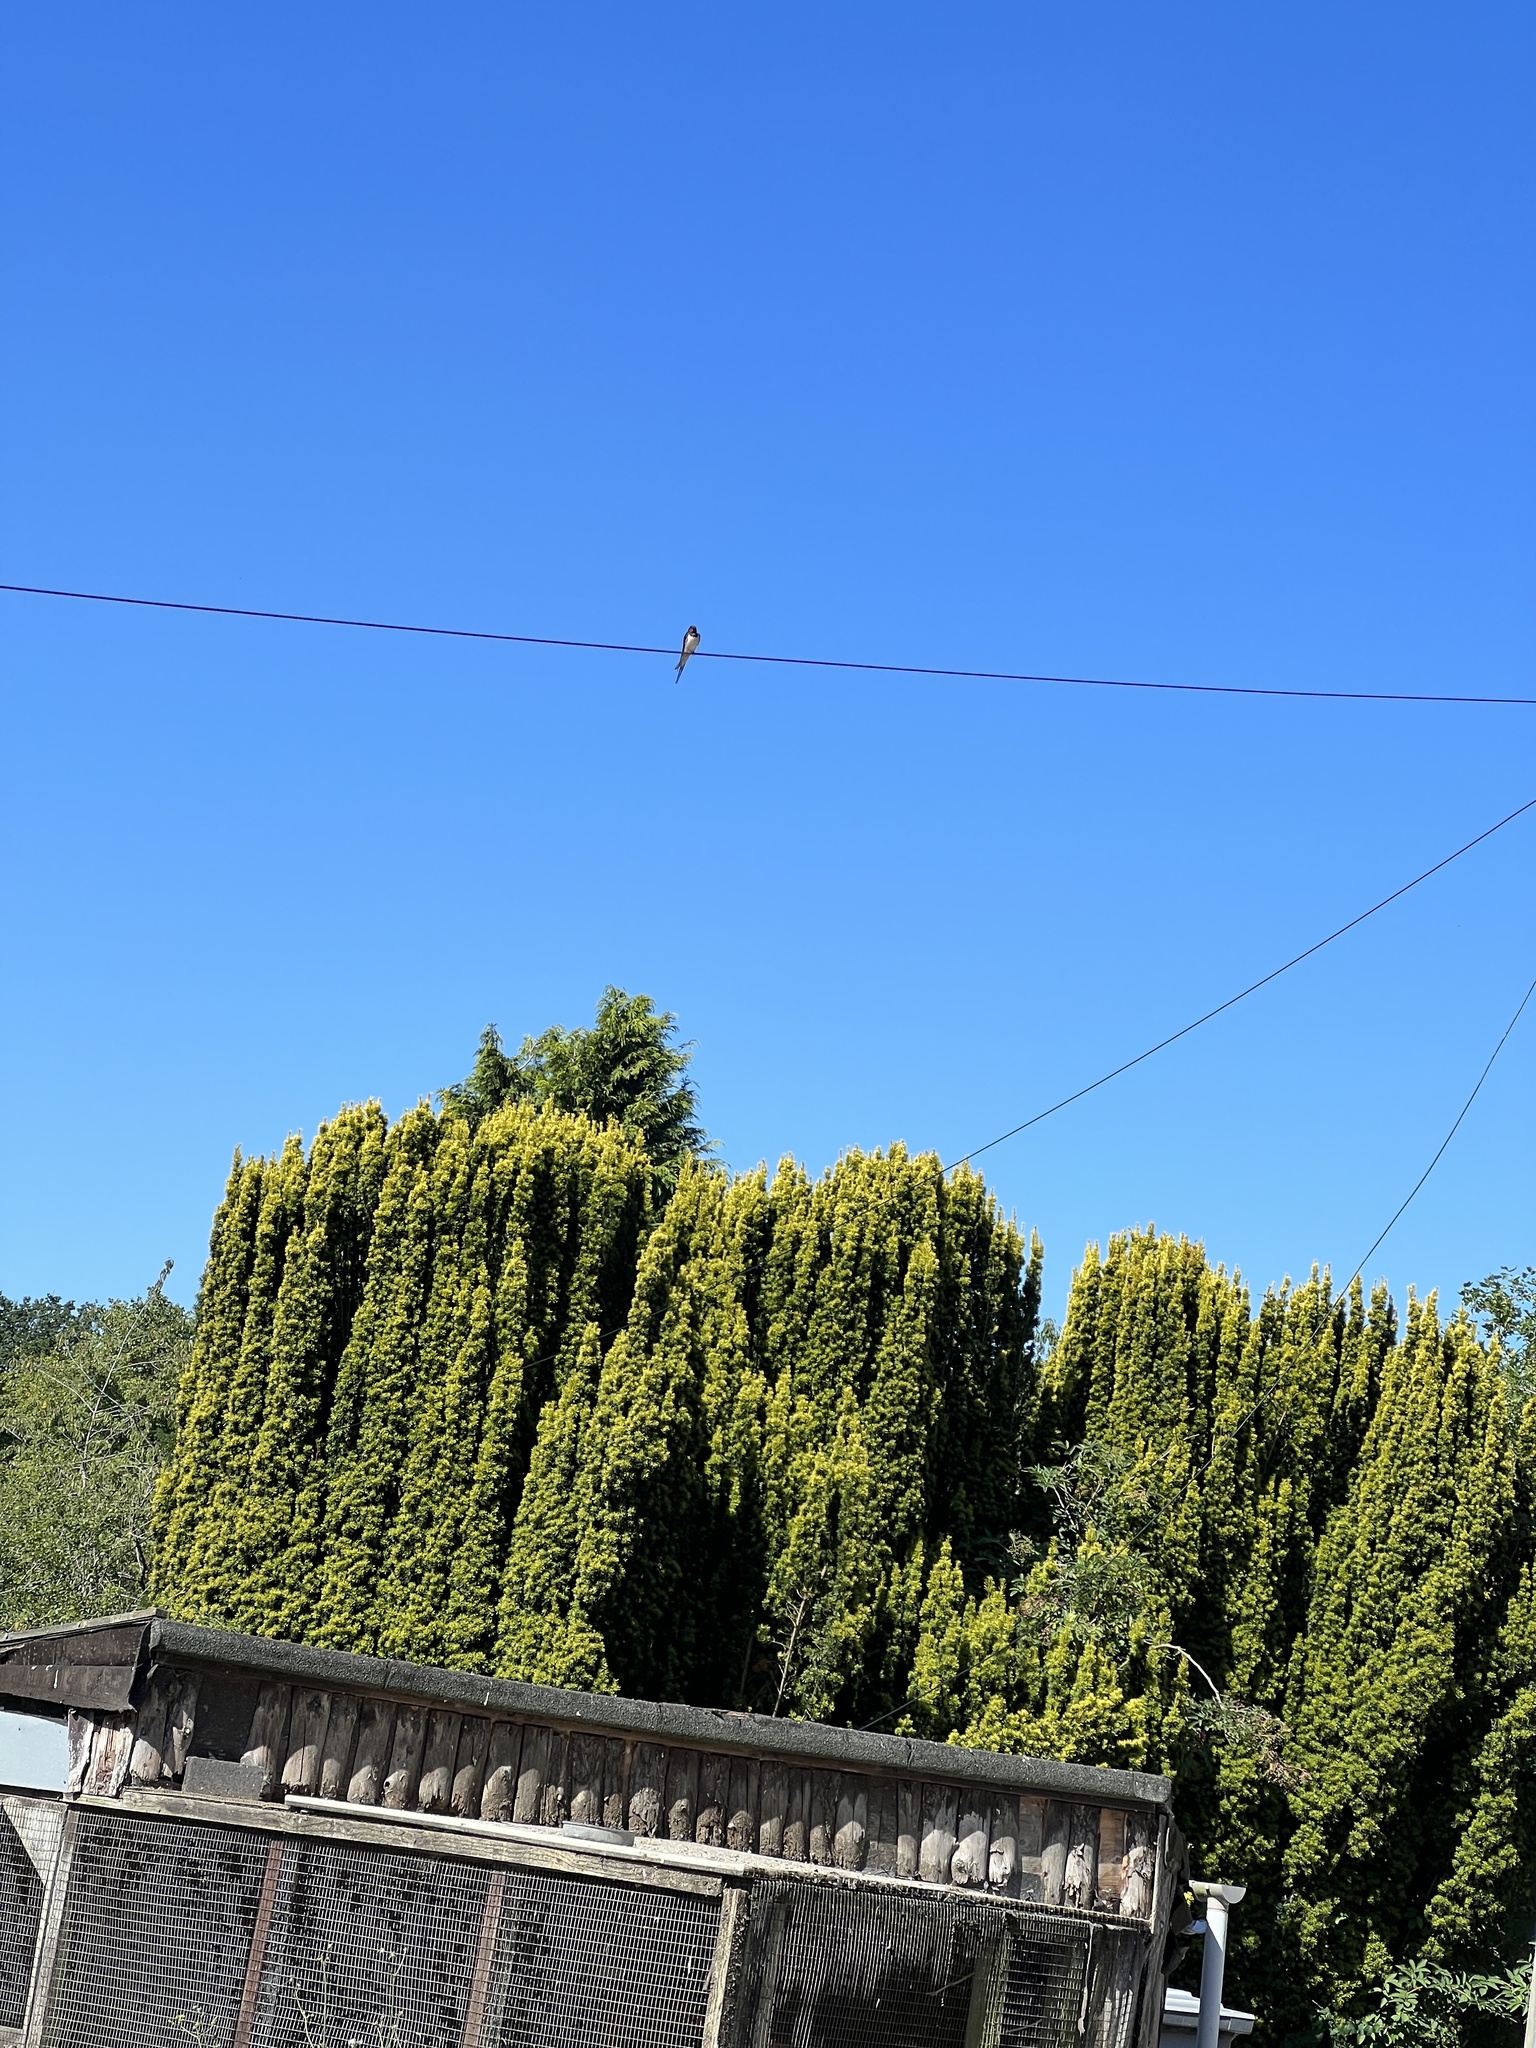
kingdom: Animalia
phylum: Chordata
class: Aves
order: Passeriformes
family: Hirundinidae
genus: Hirundo
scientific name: Hirundo rustica
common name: Barn swallow
